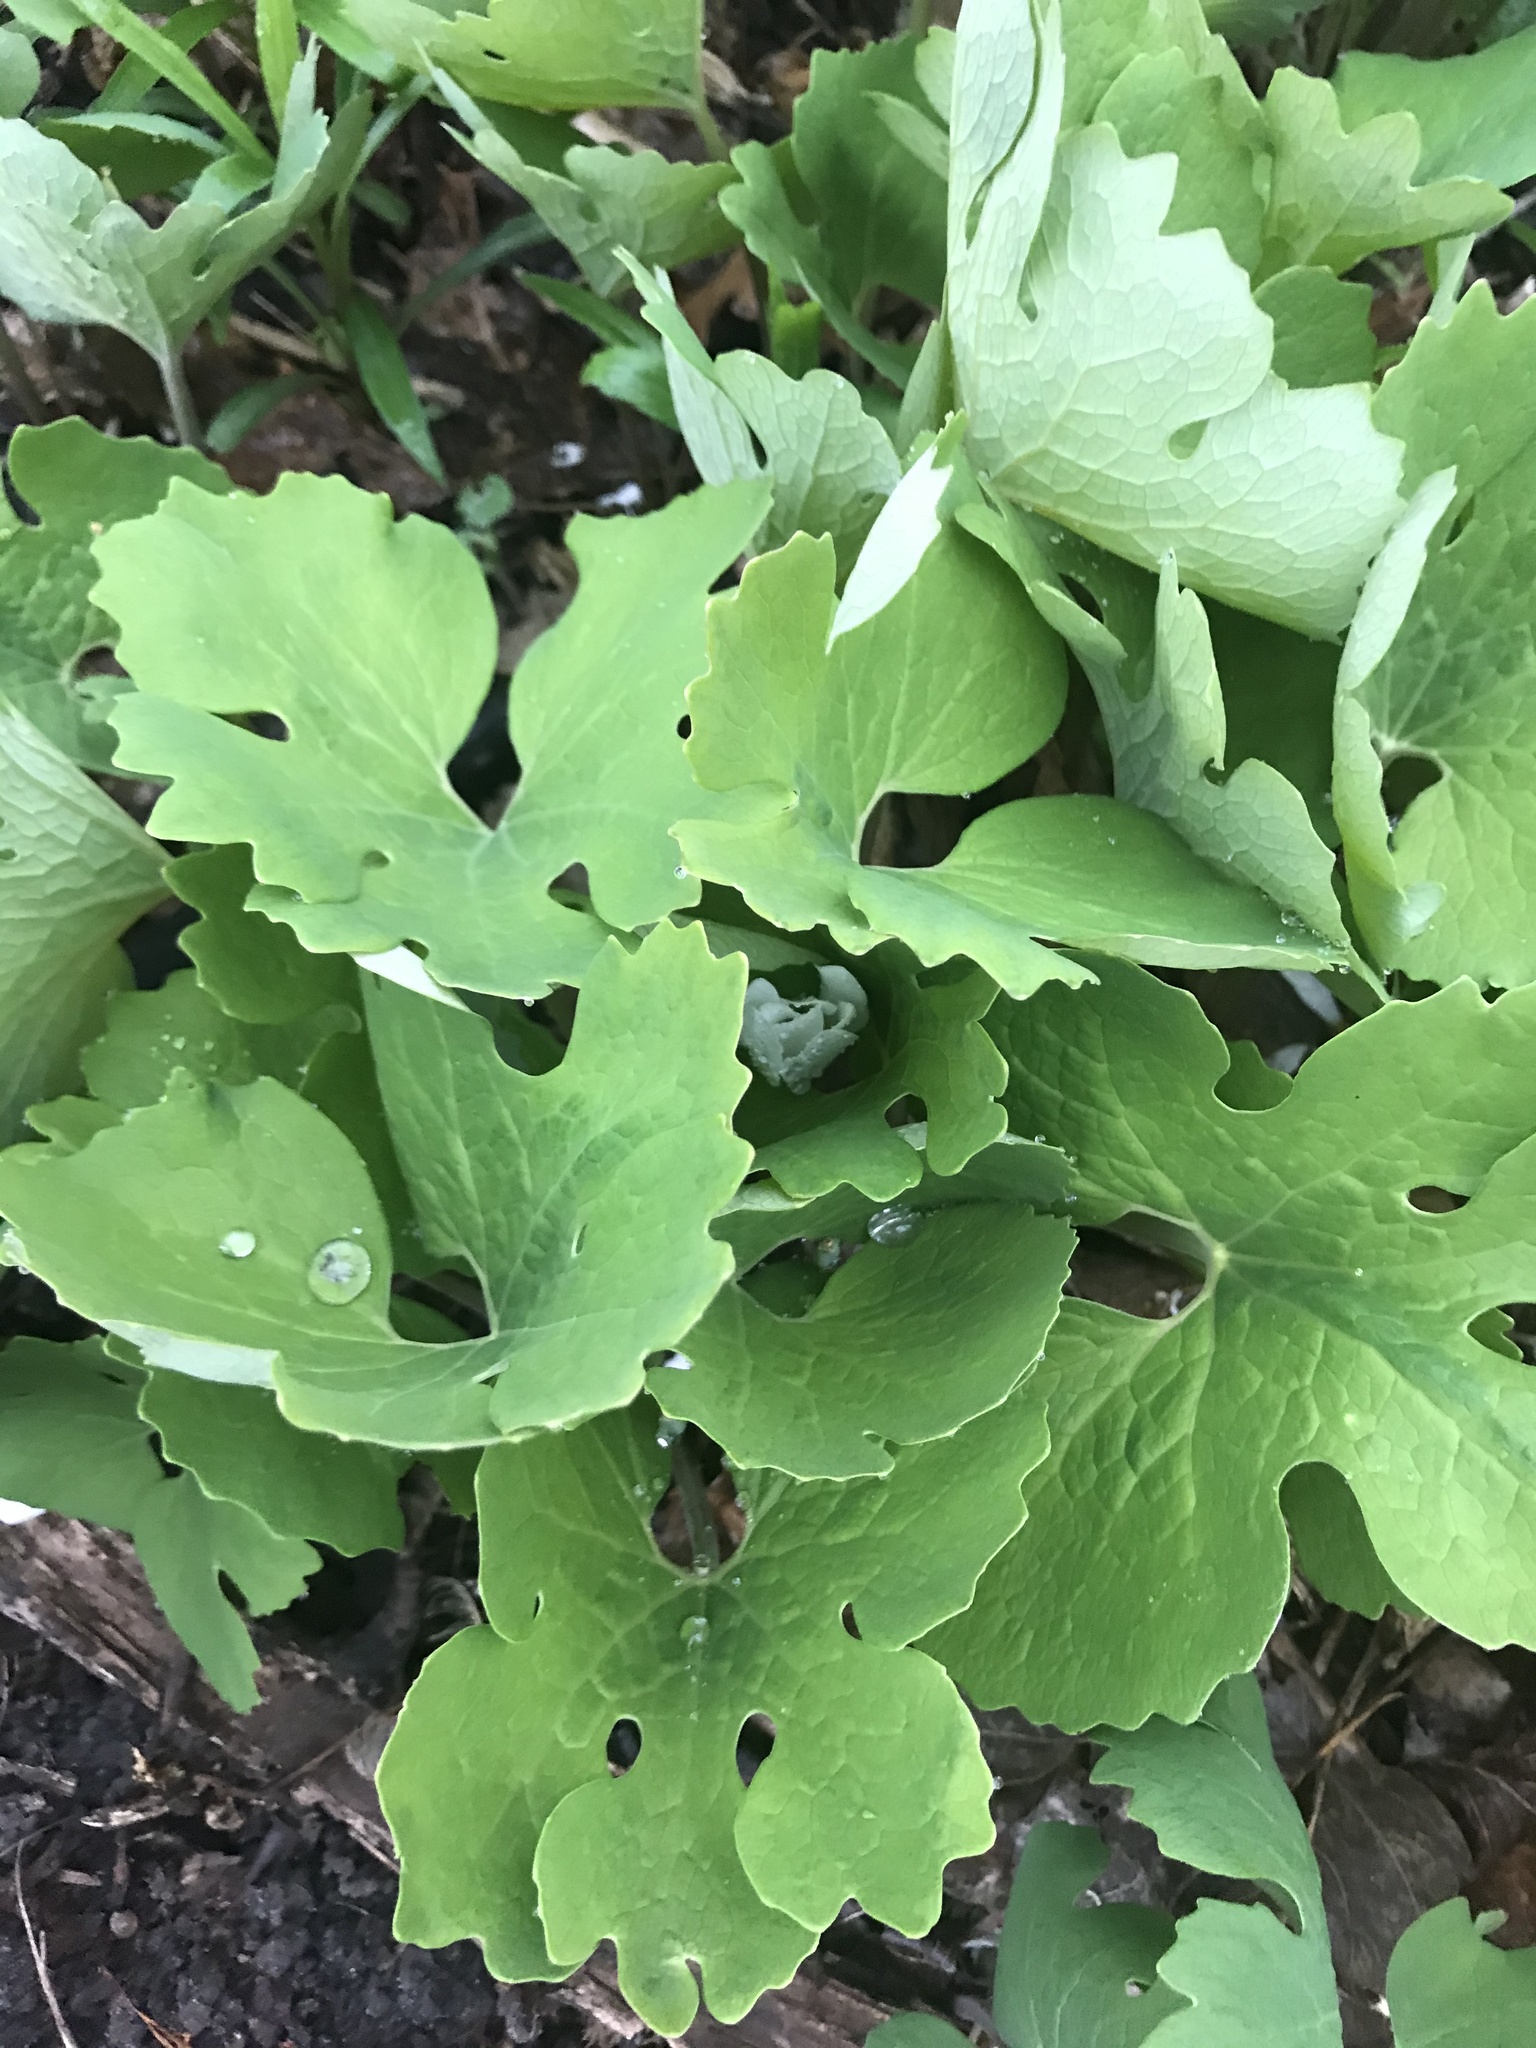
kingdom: Plantae
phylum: Tracheophyta
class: Magnoliopsida
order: Ranunculales
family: Papaveraceae
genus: Sanguinaria
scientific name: Sanguinaria canadensis
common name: Bloodroot
